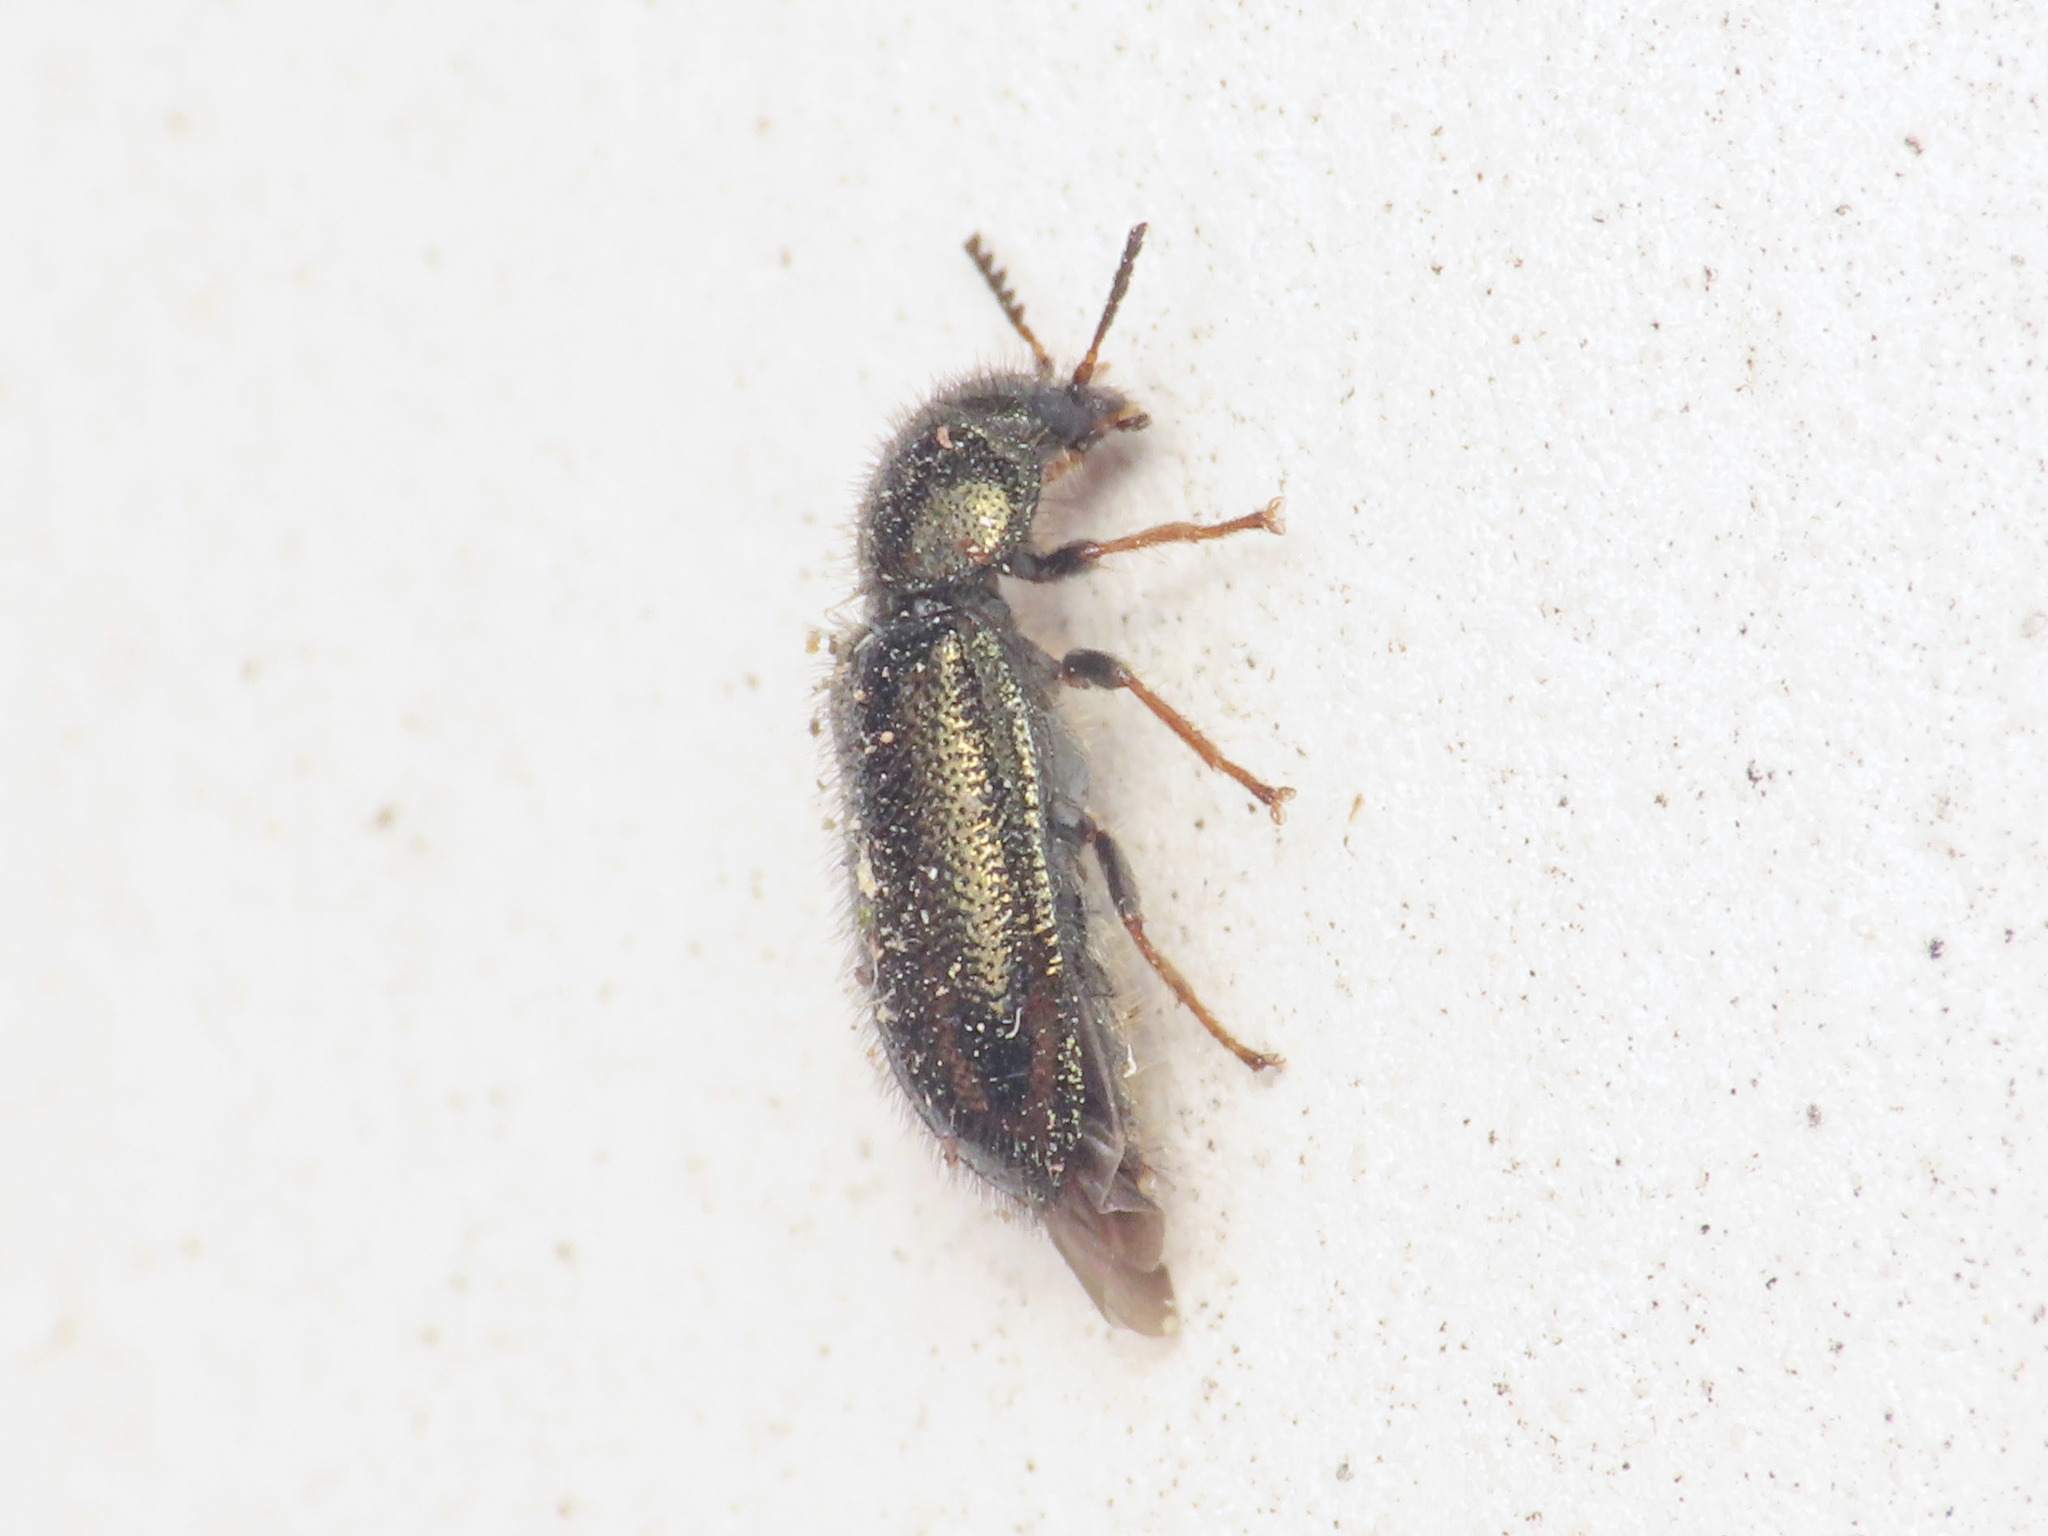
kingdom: Animalia
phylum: Arthropoda
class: Insecta
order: Coleoptera
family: Dasytidae
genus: Aplocnemus
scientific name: Aplocnemus chalconatus
